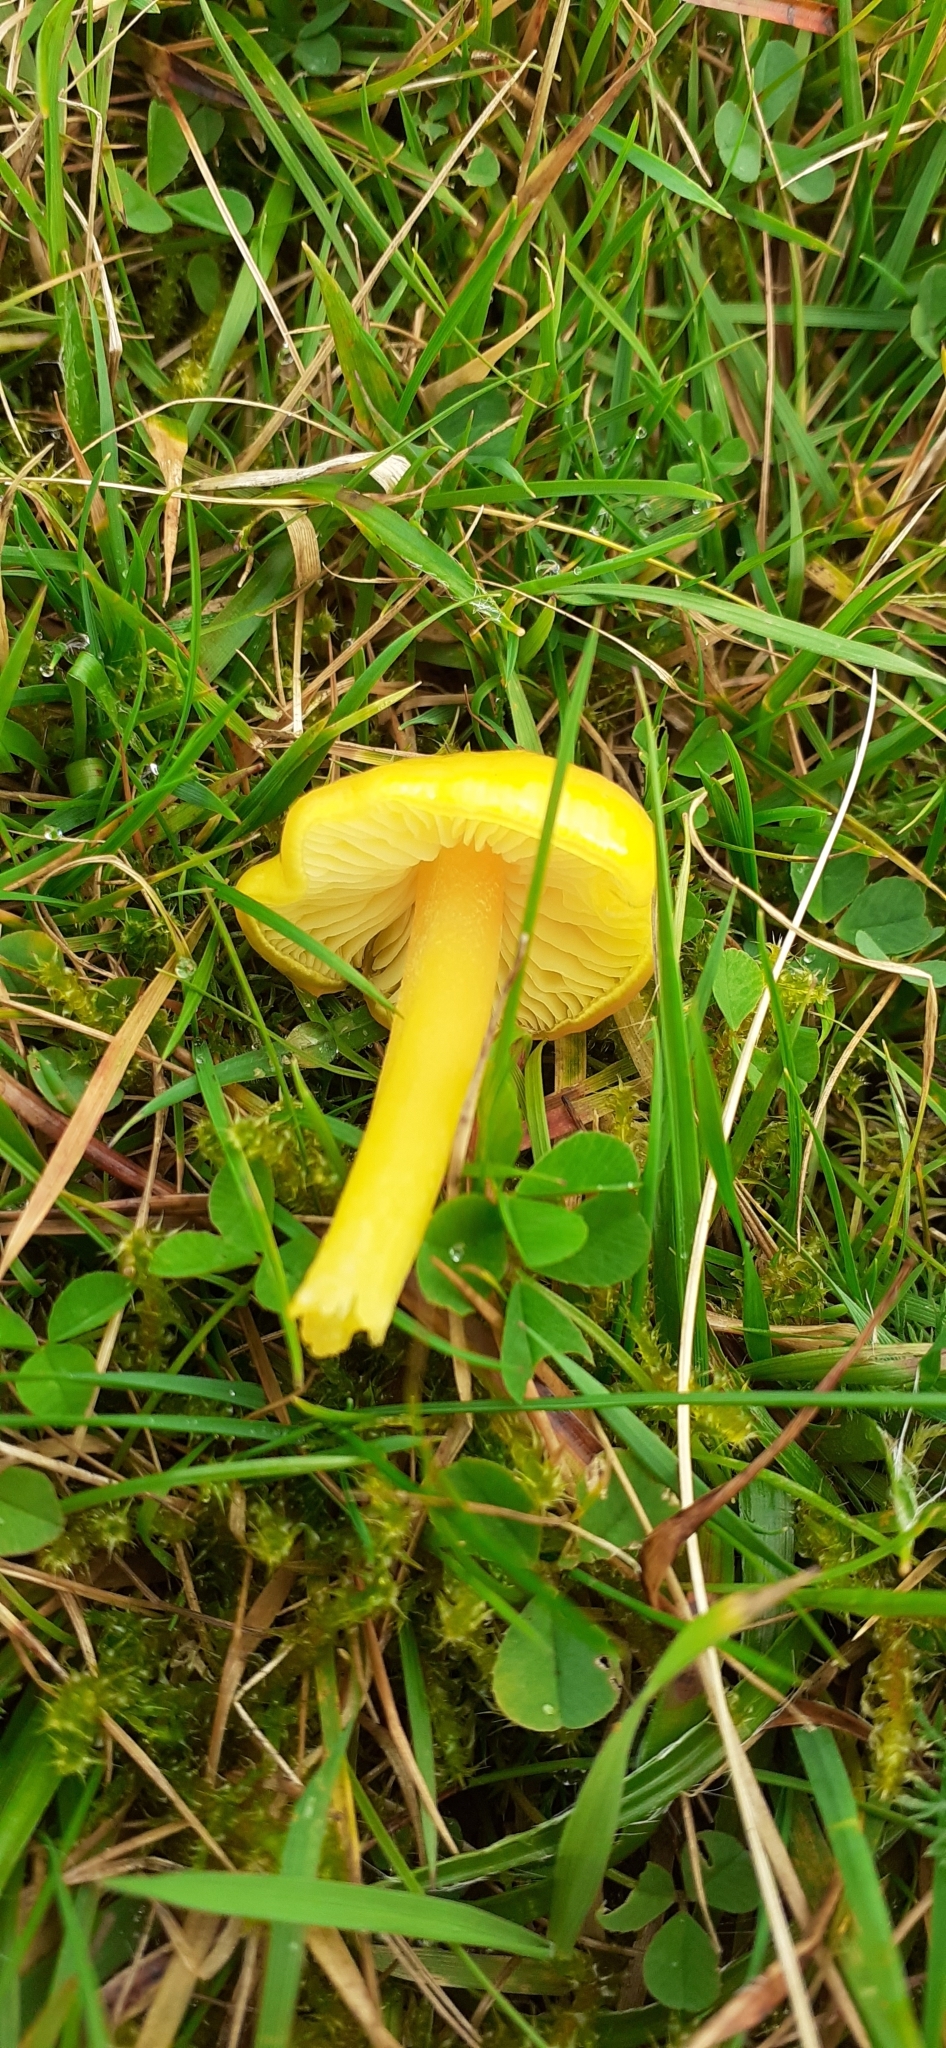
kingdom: Fungi
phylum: Basidiomycota
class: Agaricomycetes
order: Agaricales
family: Hygrophoraceae
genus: Hygrocybe
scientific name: Hygrocybe chlorophana
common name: Golden waxcap
